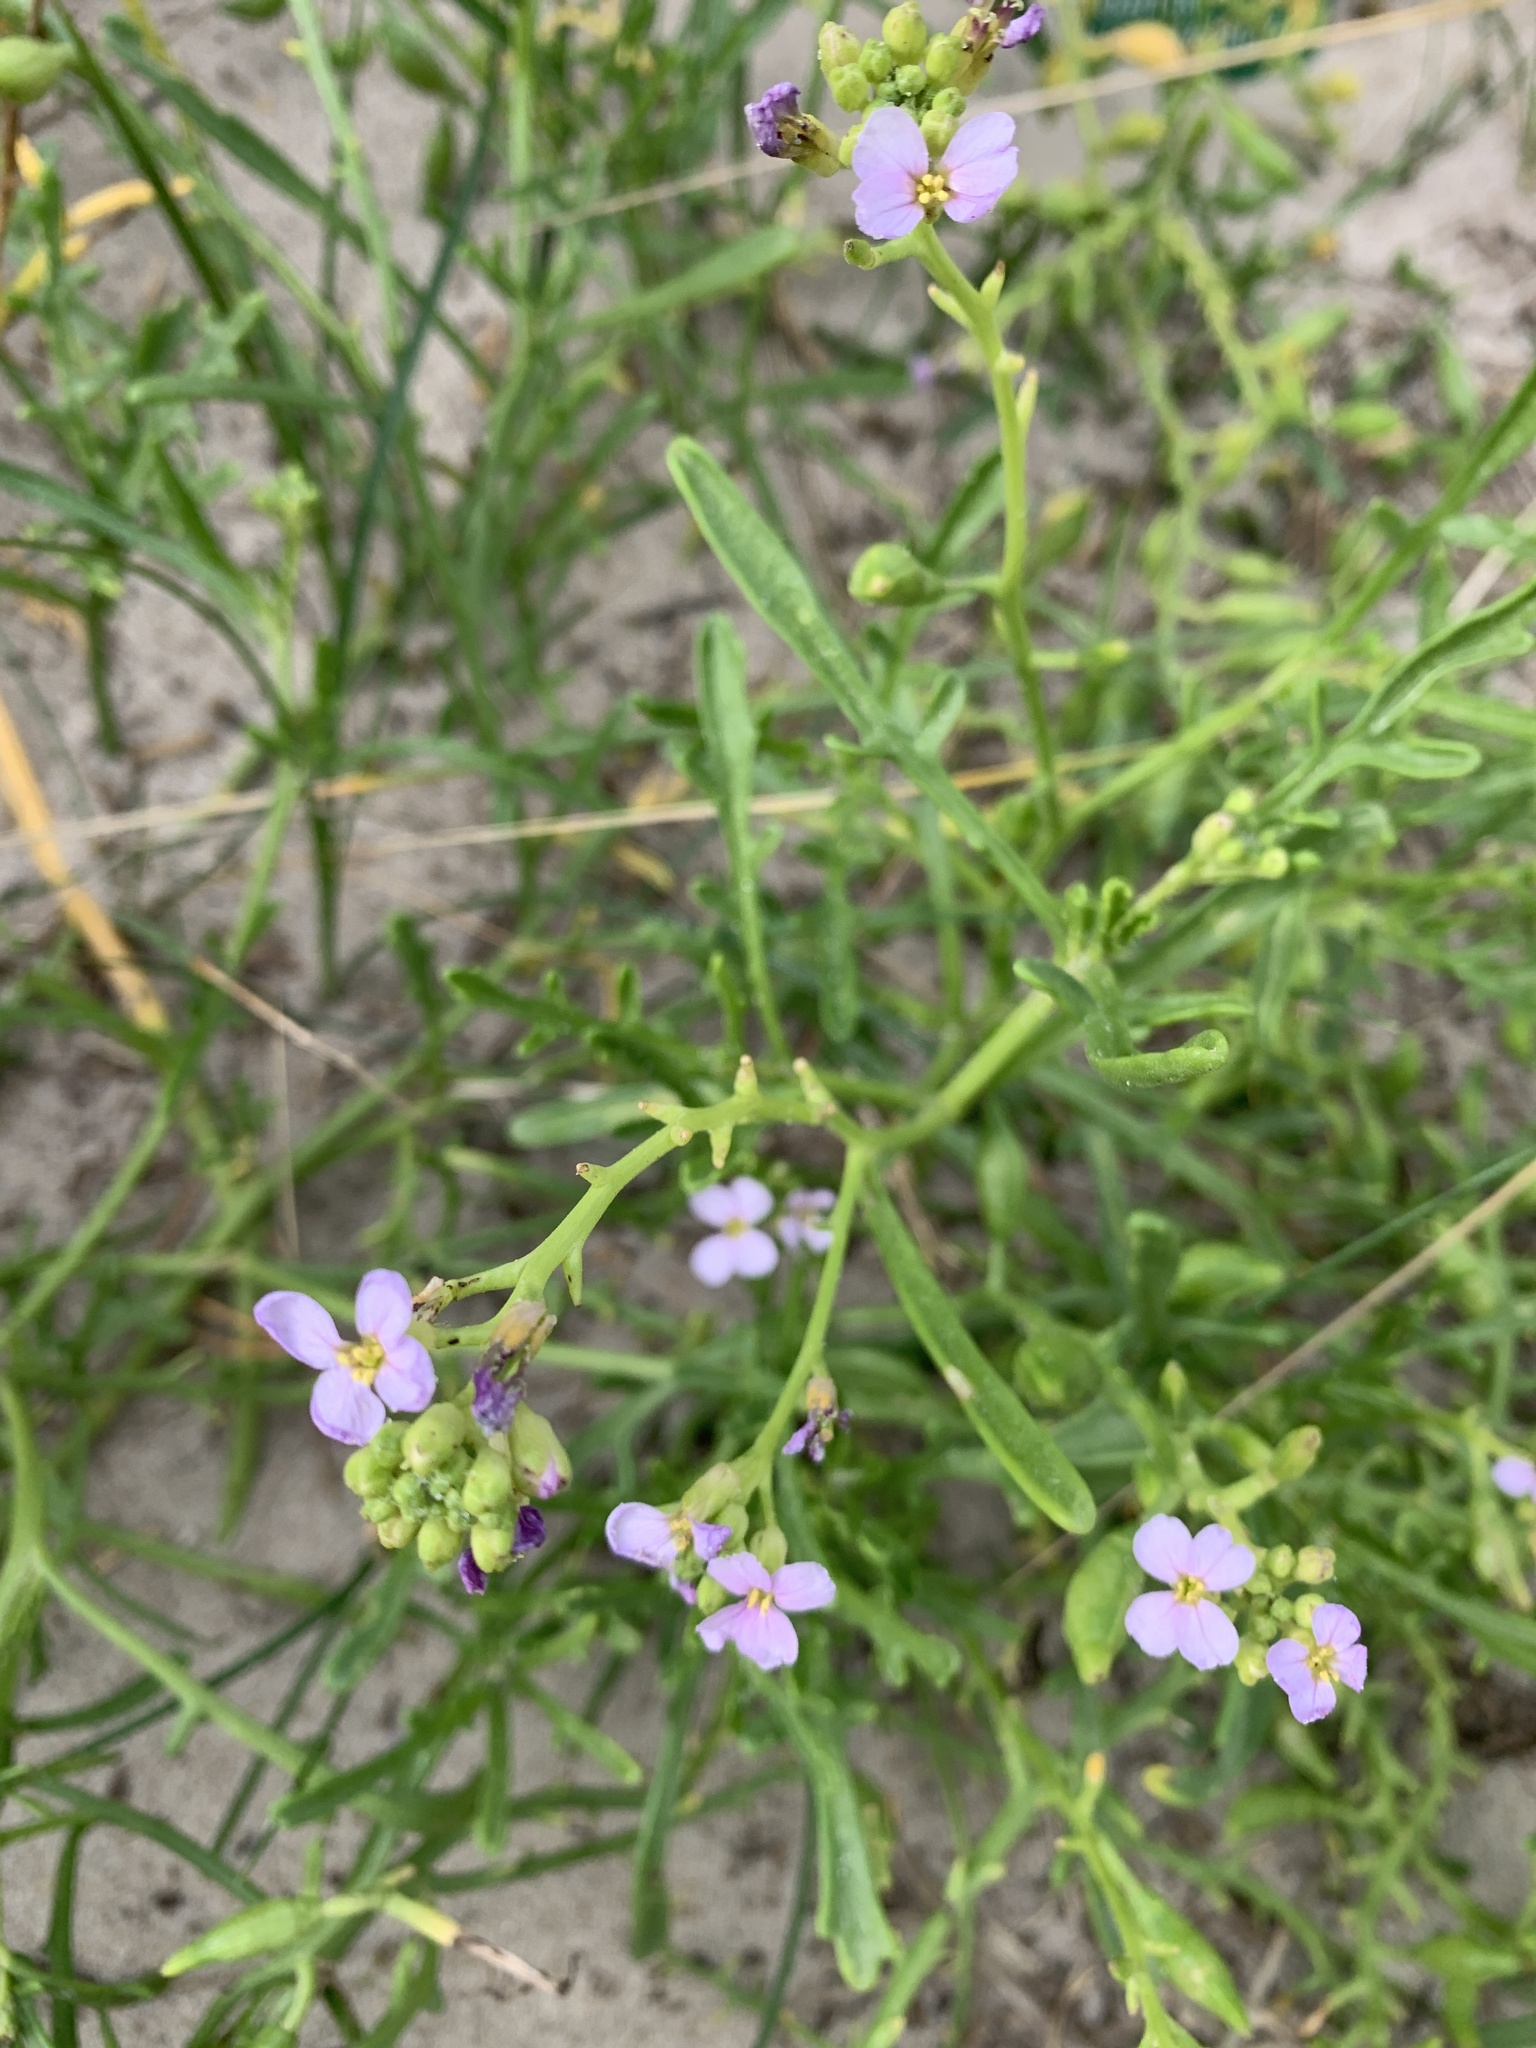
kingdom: Plantae
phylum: Tracheophyta
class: Magnoliopsida
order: Brassicales
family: Brassicaceae
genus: Cakile
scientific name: Cakile maritima
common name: Sea rocket
